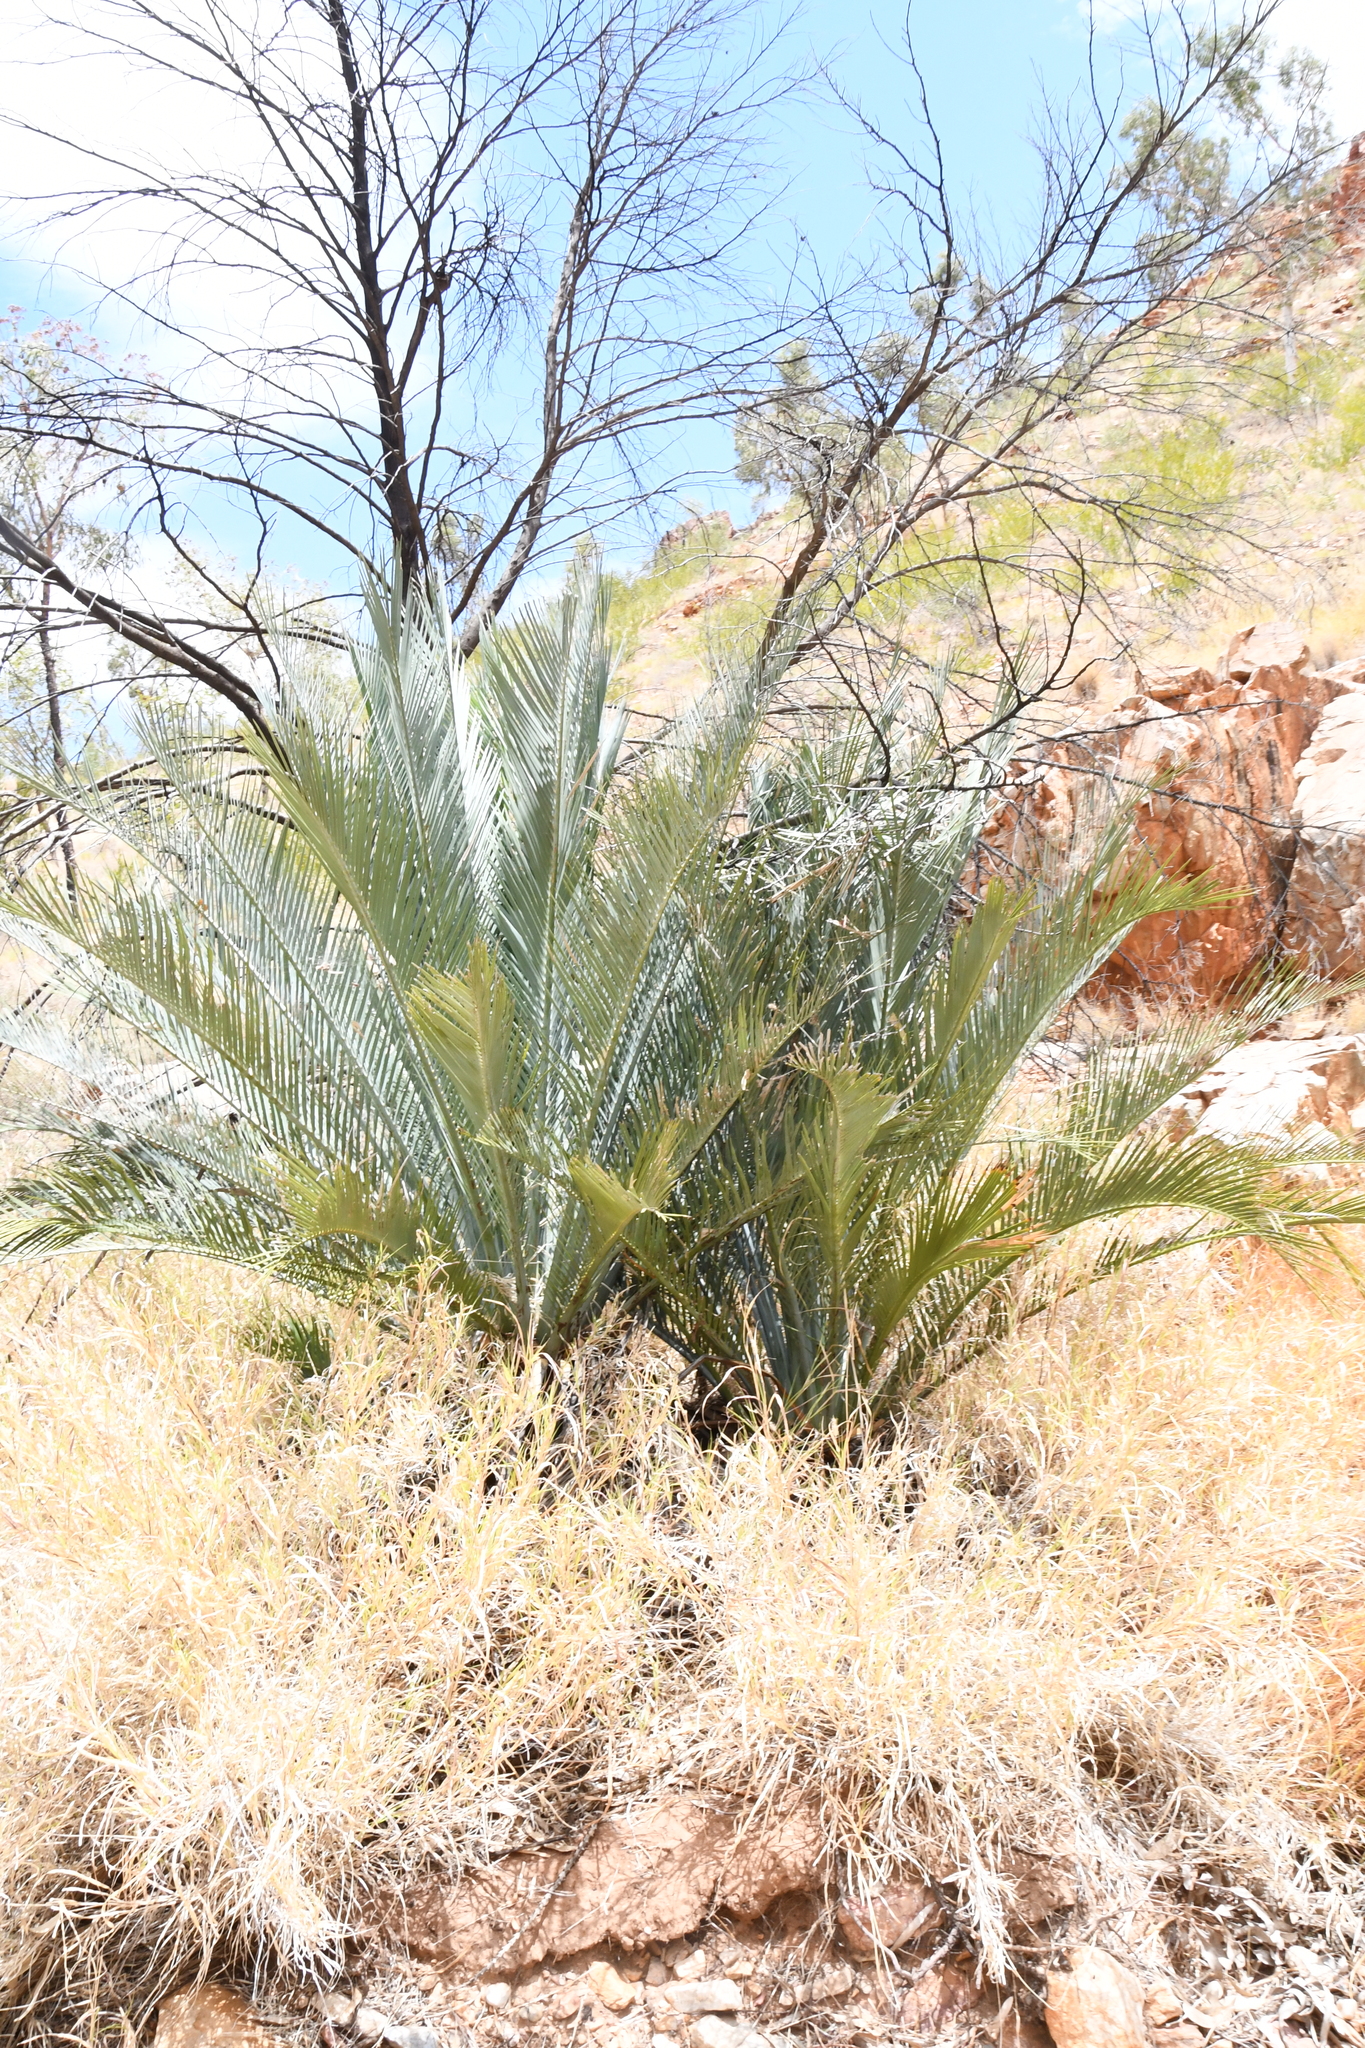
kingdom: Plantae
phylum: Tracheophyta
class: Cycadopsida
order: Cycadales
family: Zamiaceae
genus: Macrozamia
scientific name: Macrozamia macdonnellii
